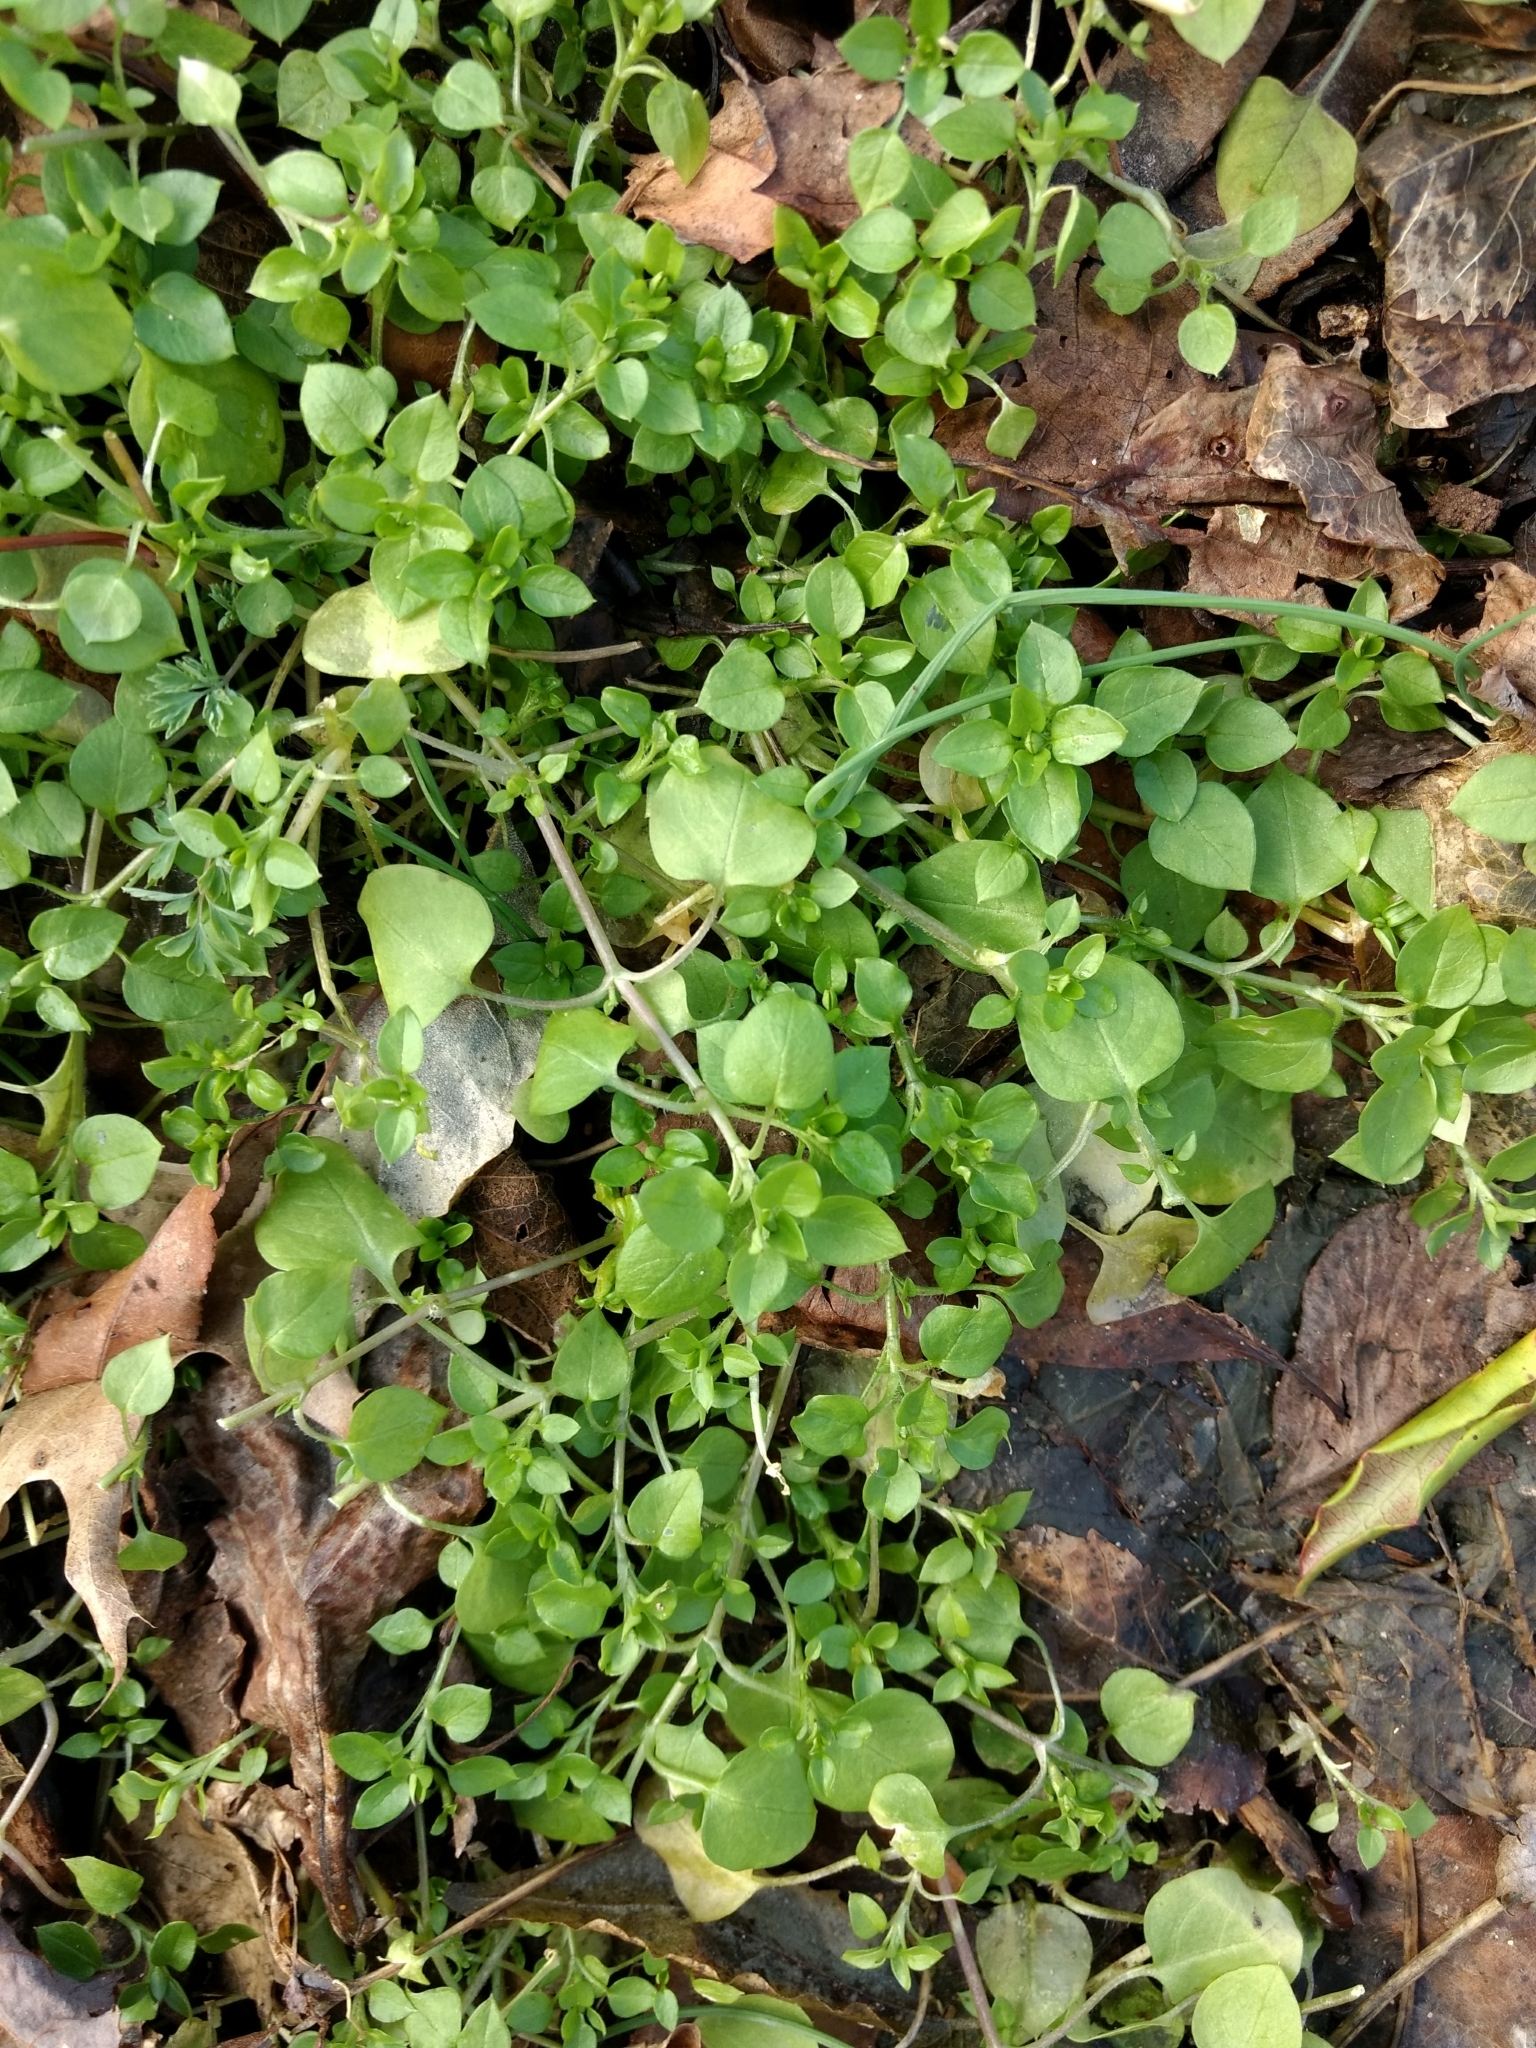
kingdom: Plantae
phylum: Tracheophyta
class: Magnoliopsida
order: Caryophyllales
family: Caryophyllaceae
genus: Stellaria
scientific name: Stellaria media
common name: Common chickweed
